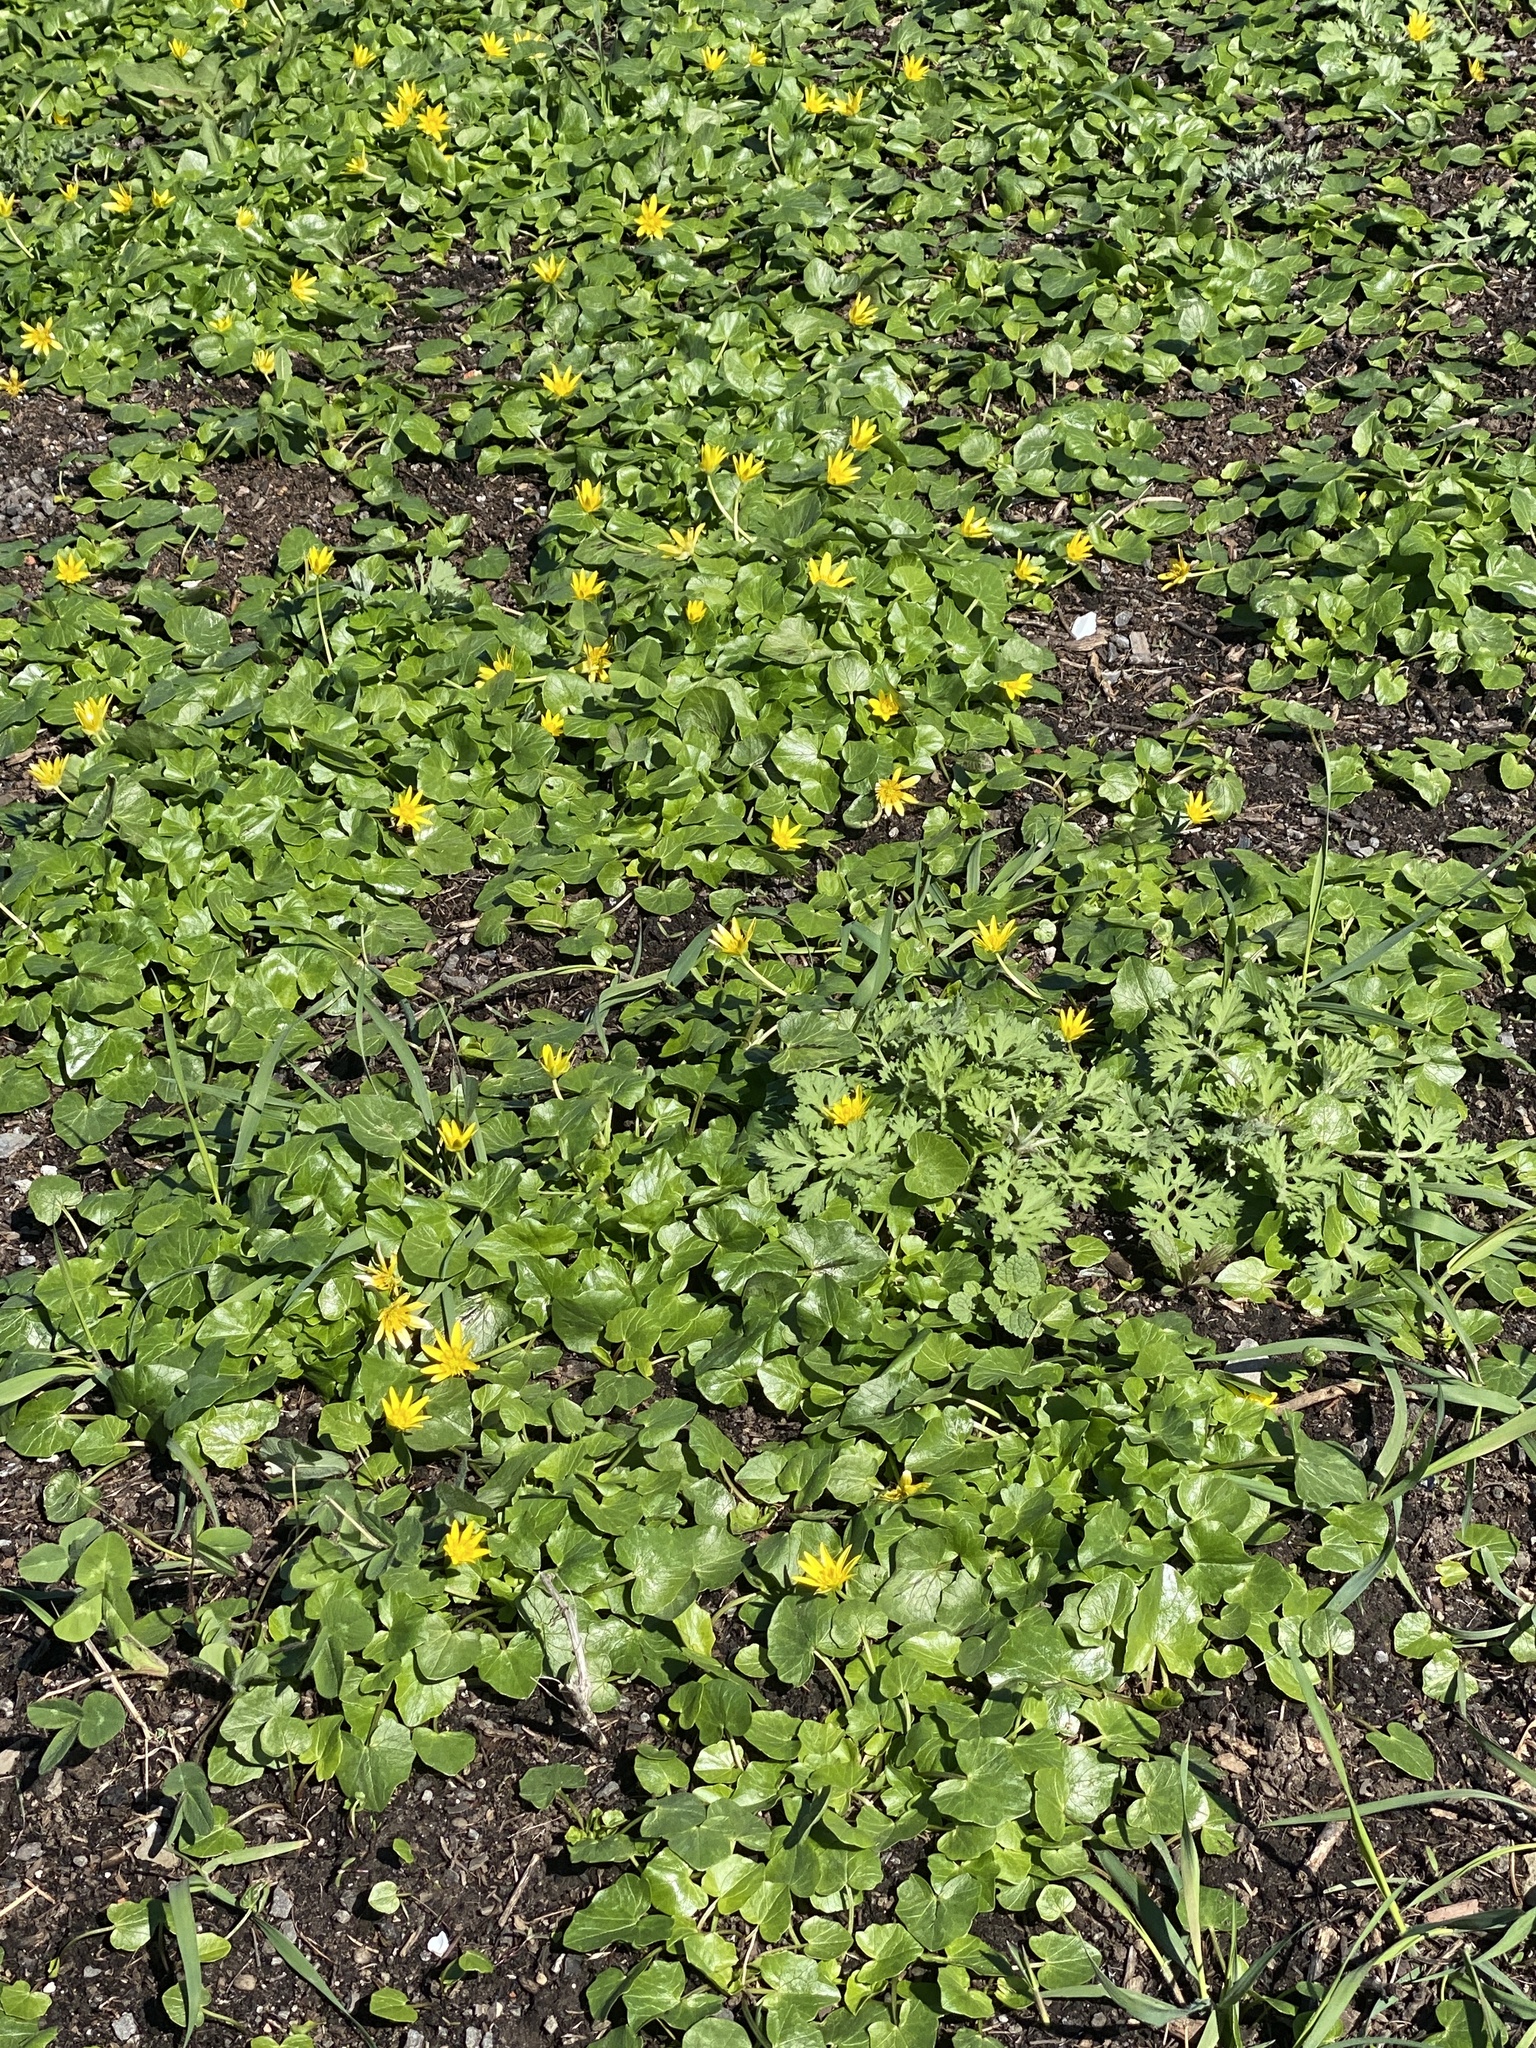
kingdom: Plantae
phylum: Tracheophyta
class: Magnoliopsida
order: Ranunculales
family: Ranunculaceae
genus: Ficaria
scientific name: Ficaria verna
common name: Lesser celandine
